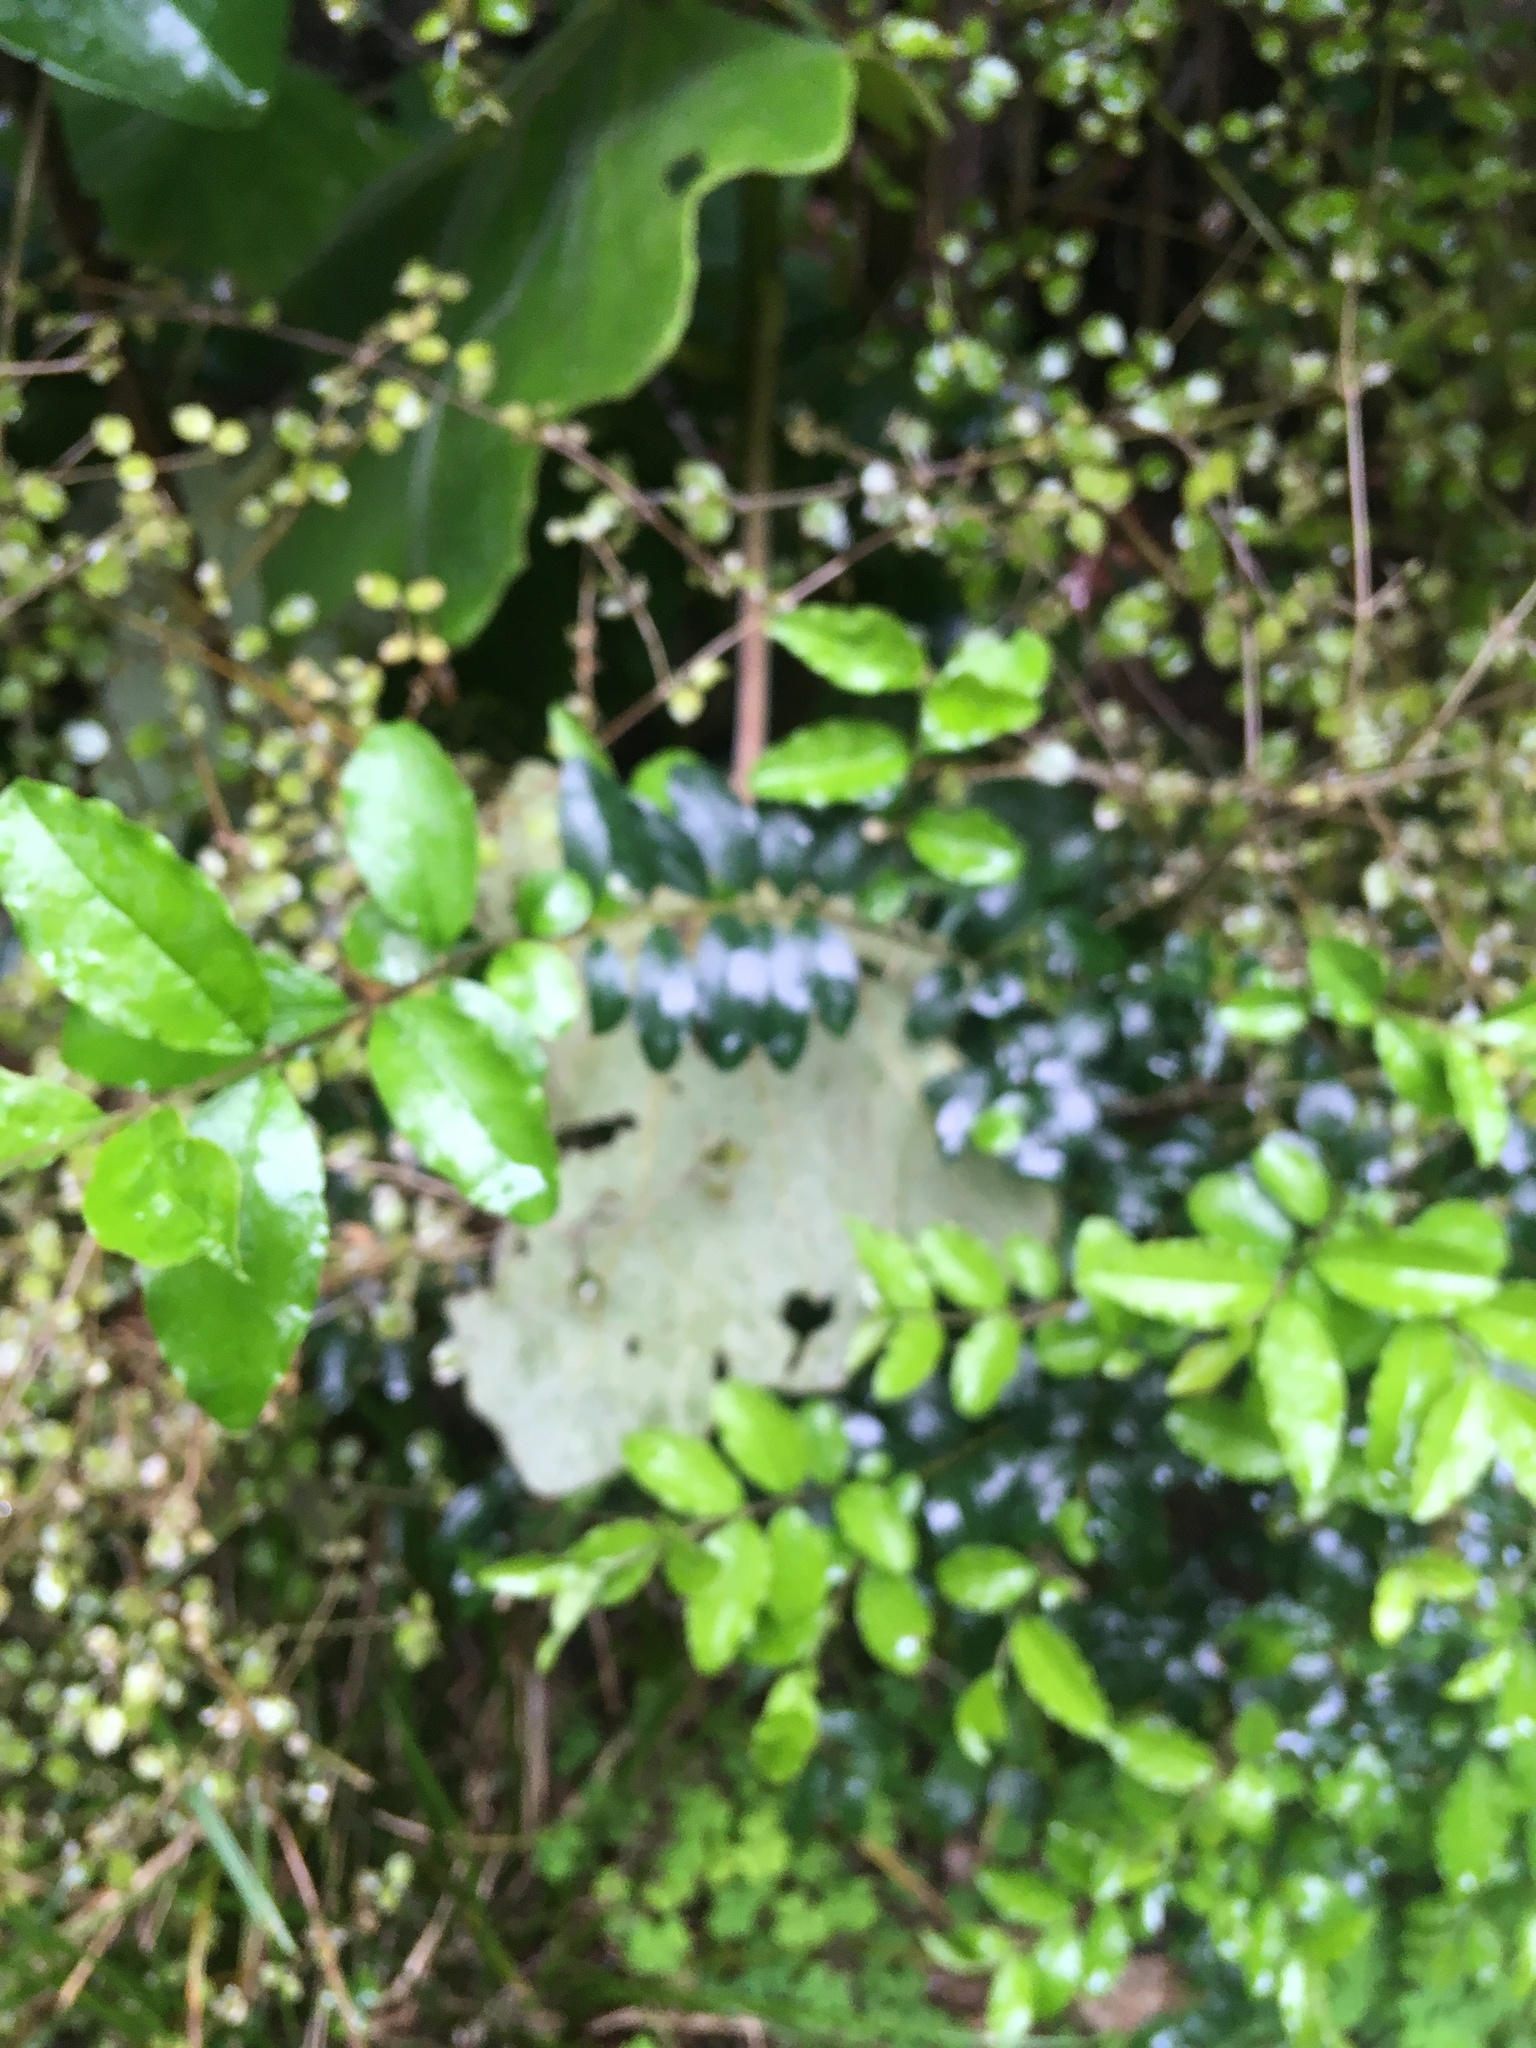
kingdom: Plantae
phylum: Tracheophyta
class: Magnoliopsida
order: Lamiales
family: Oleaceae
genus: Ligustrum
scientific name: Ligustrum sinense
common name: Chinese privet
